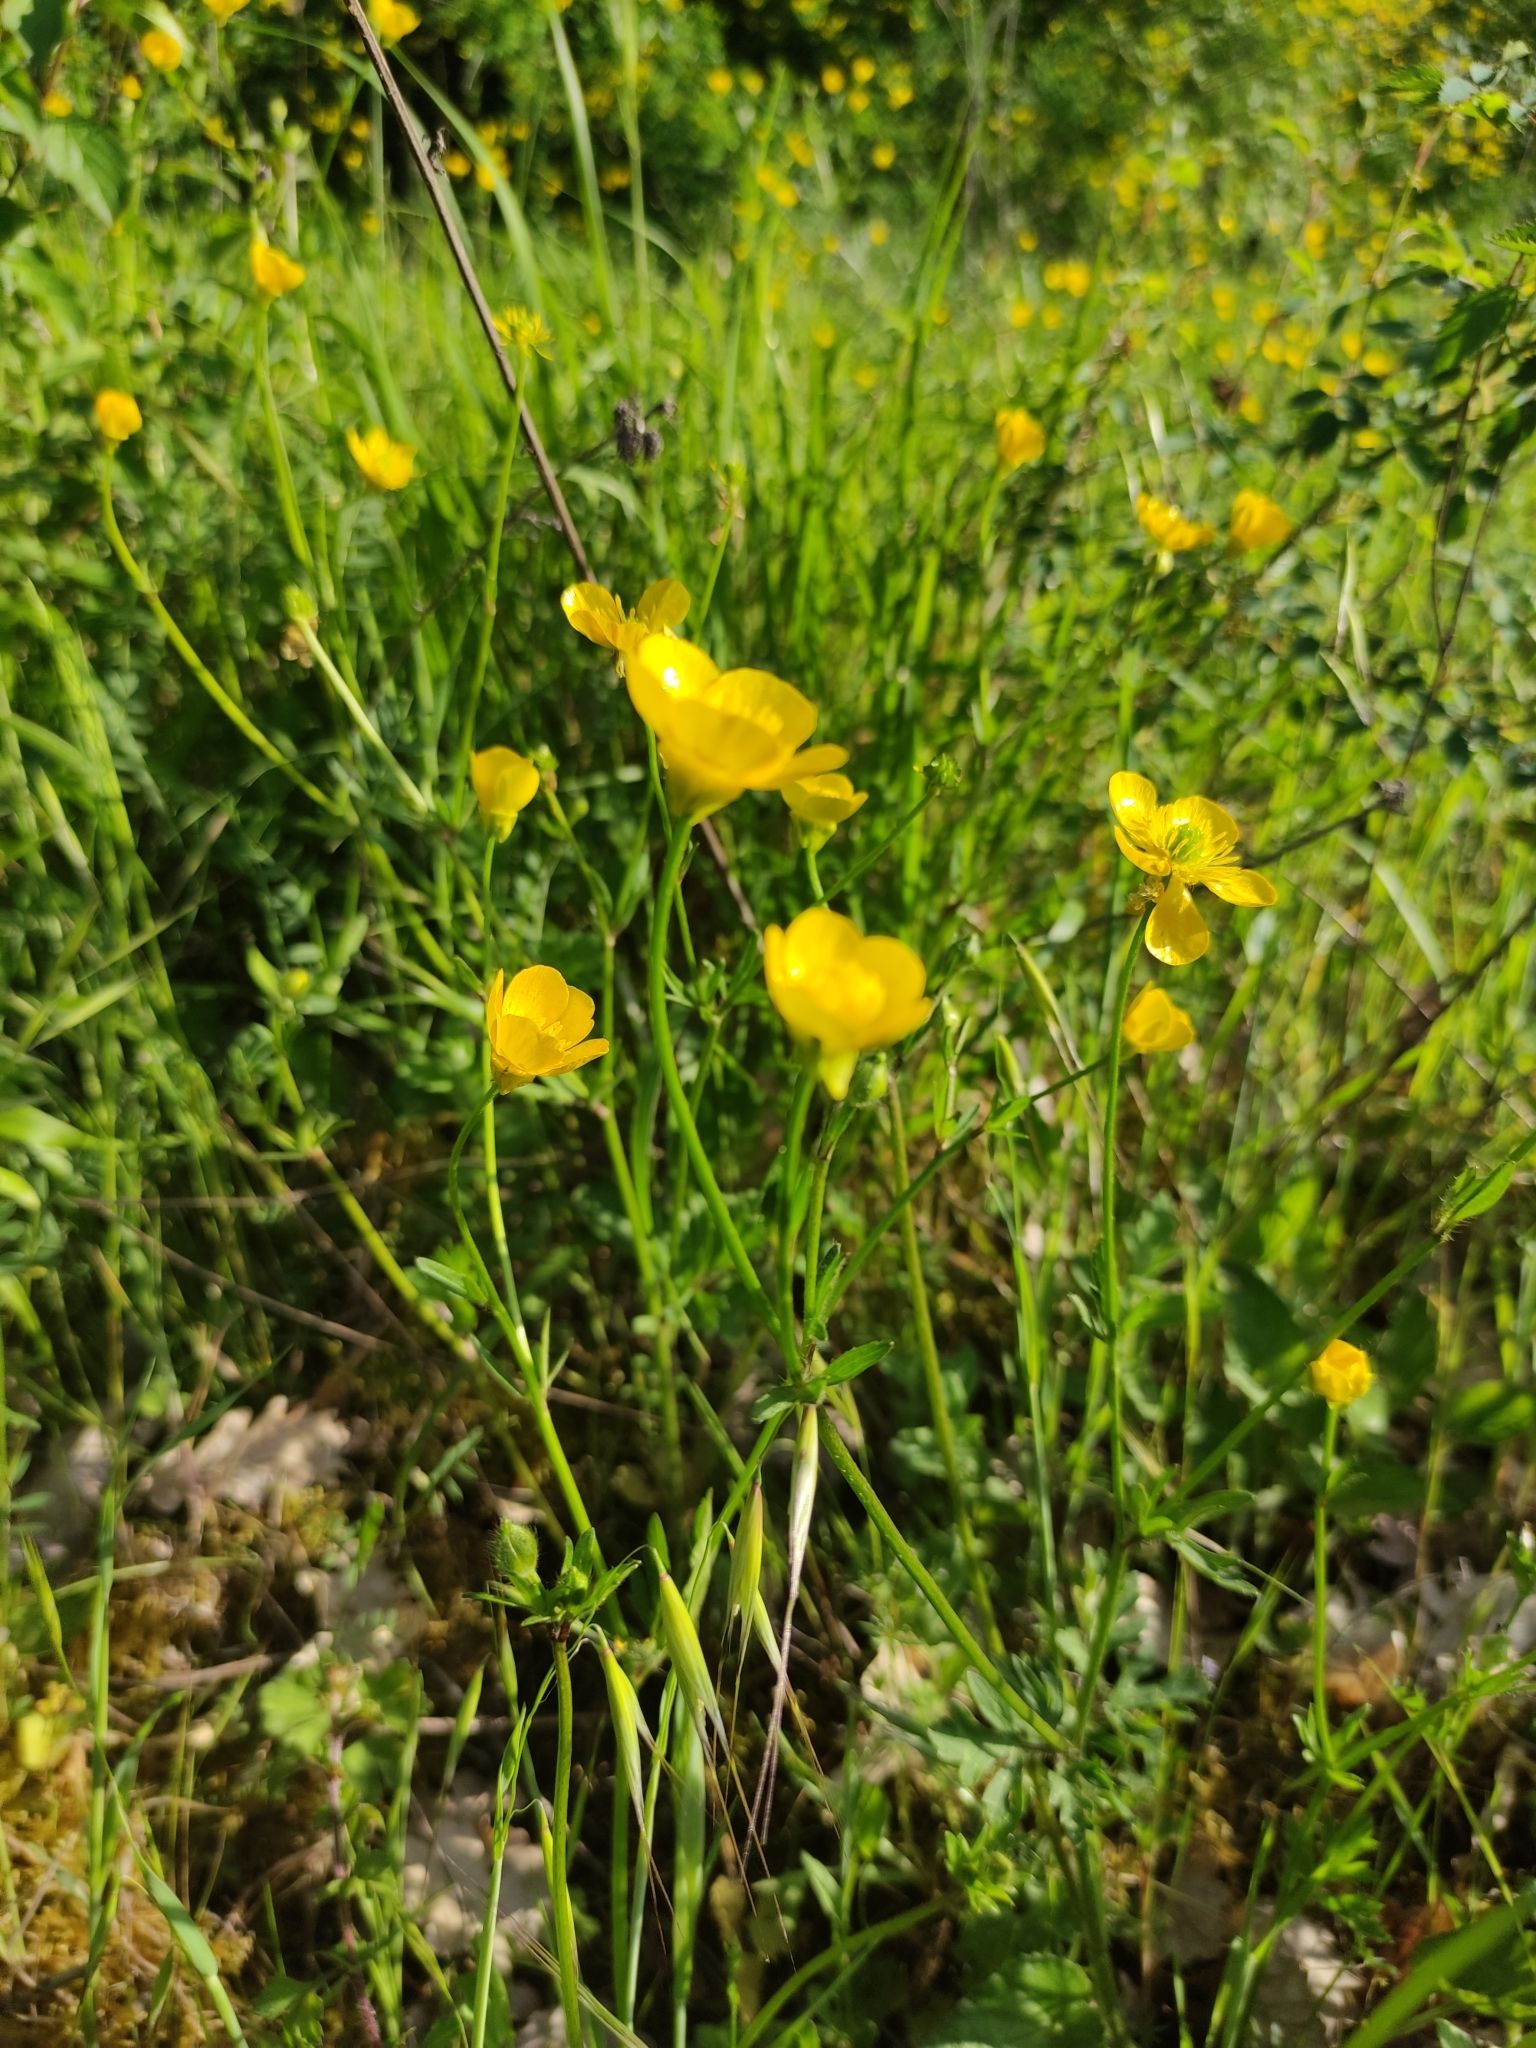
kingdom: Plantae
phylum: Tracheophyta
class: Magnoliopsida
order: Ranunculales
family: Ranunculaceae
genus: Ranunculus
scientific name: Ranunculus bulbosus
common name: Bulbous buttercup
